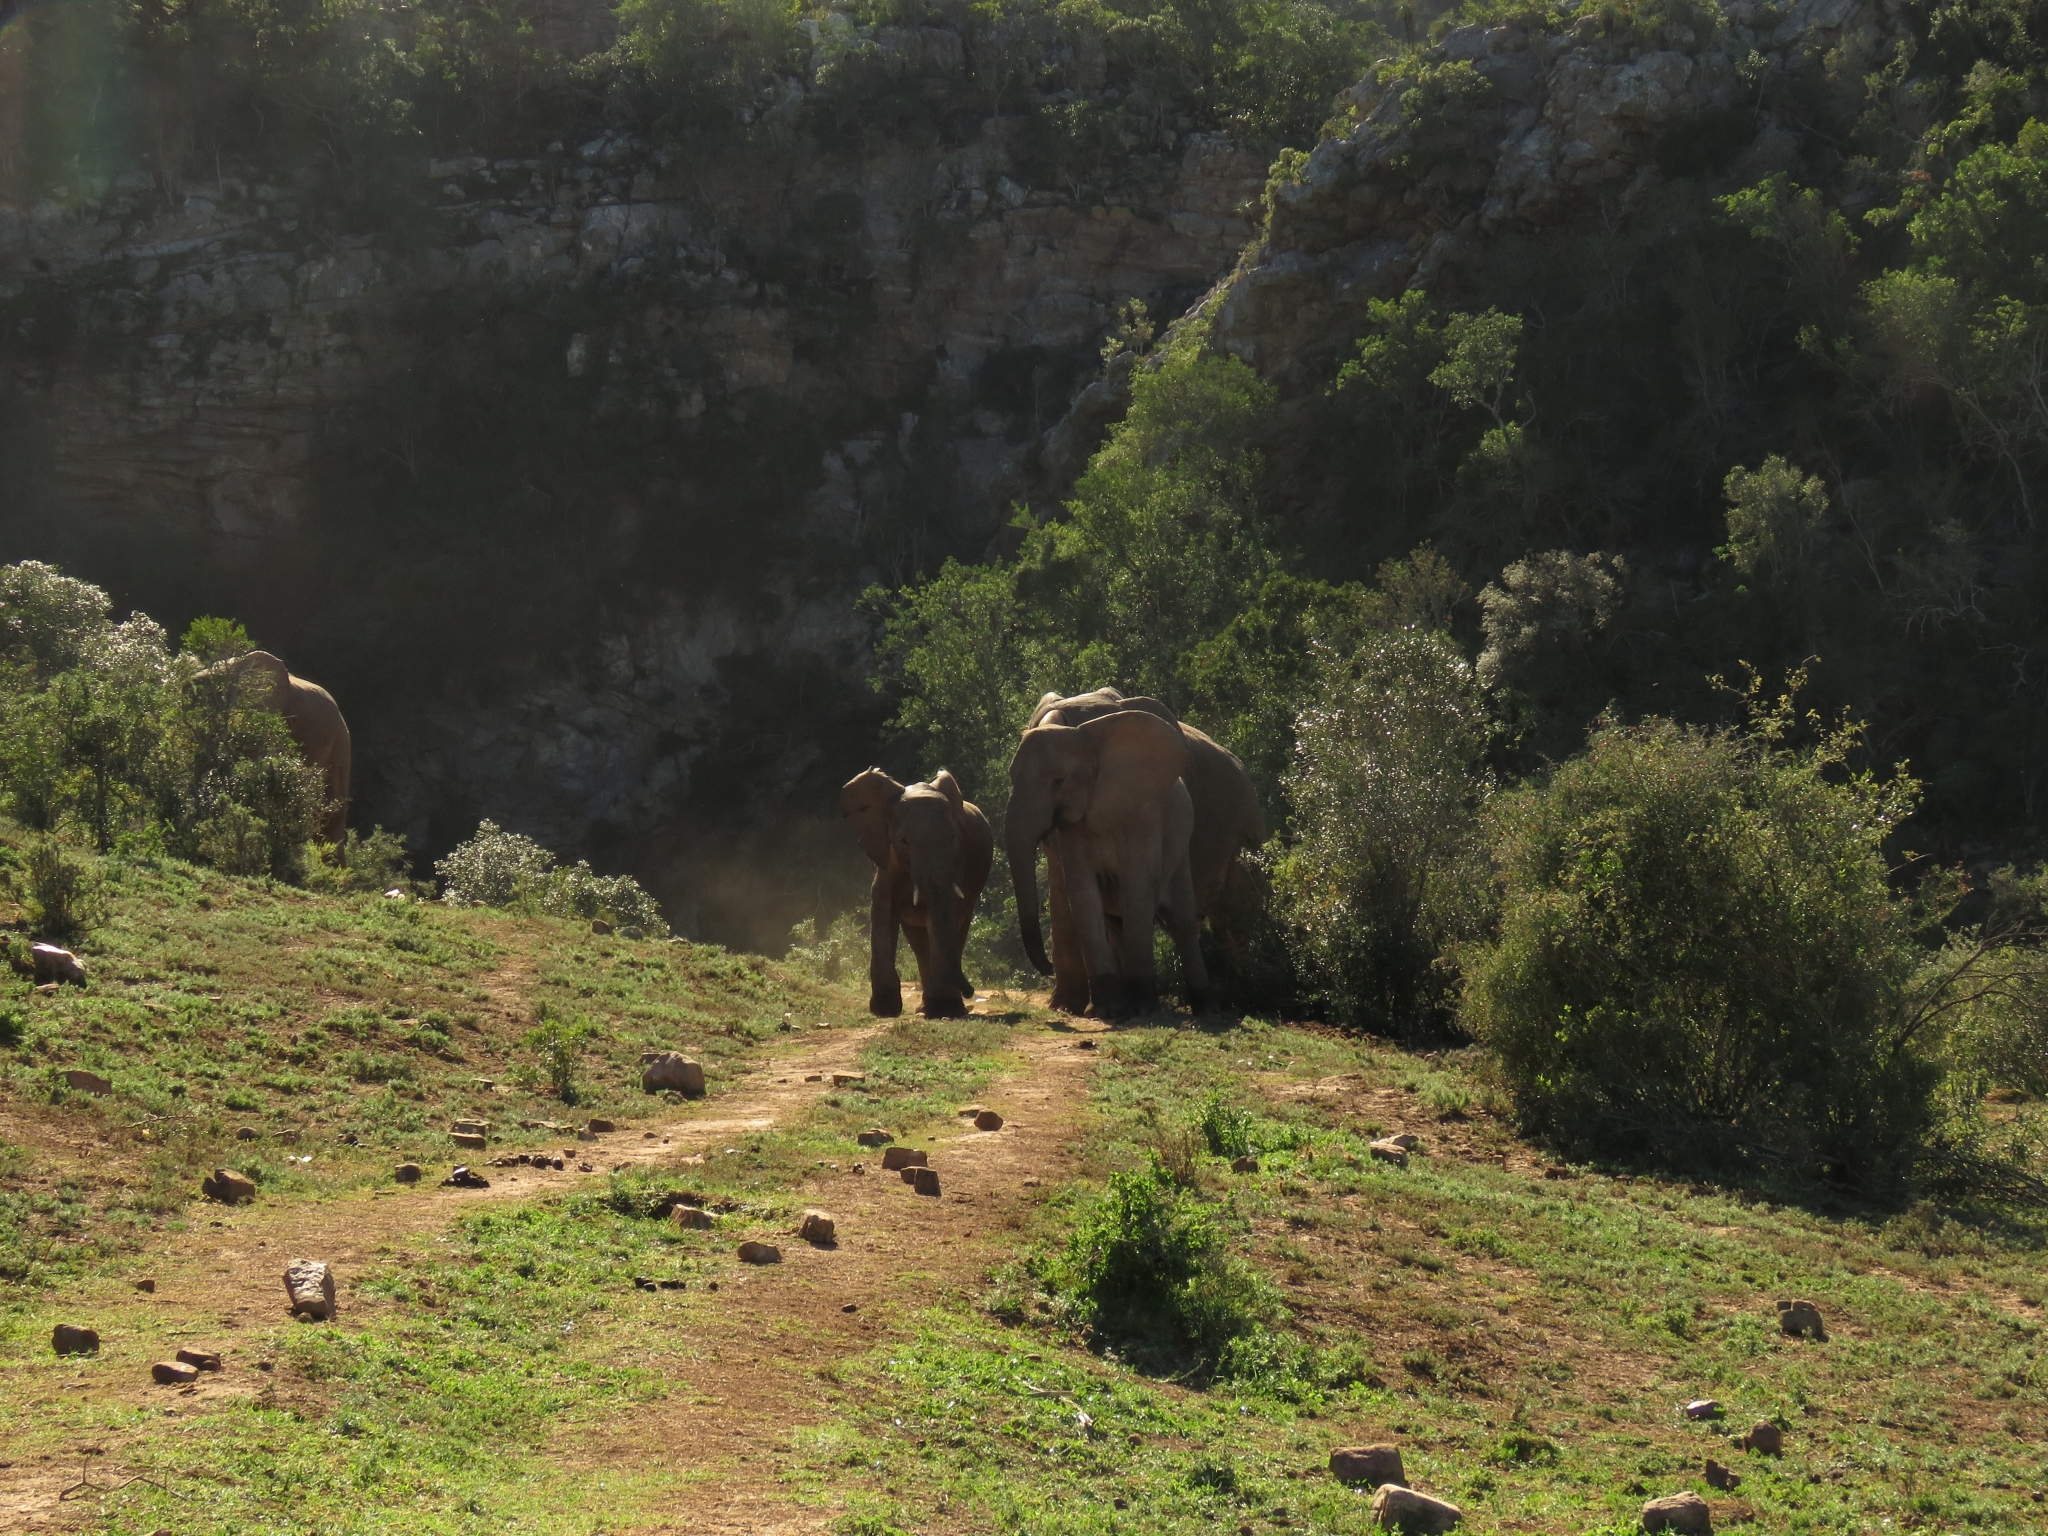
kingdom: Animalia
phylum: Chordata
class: Mammalia
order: Proboscidea
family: Elephantidae
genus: Loxodonta
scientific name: Loxodonta africana
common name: African elephant
